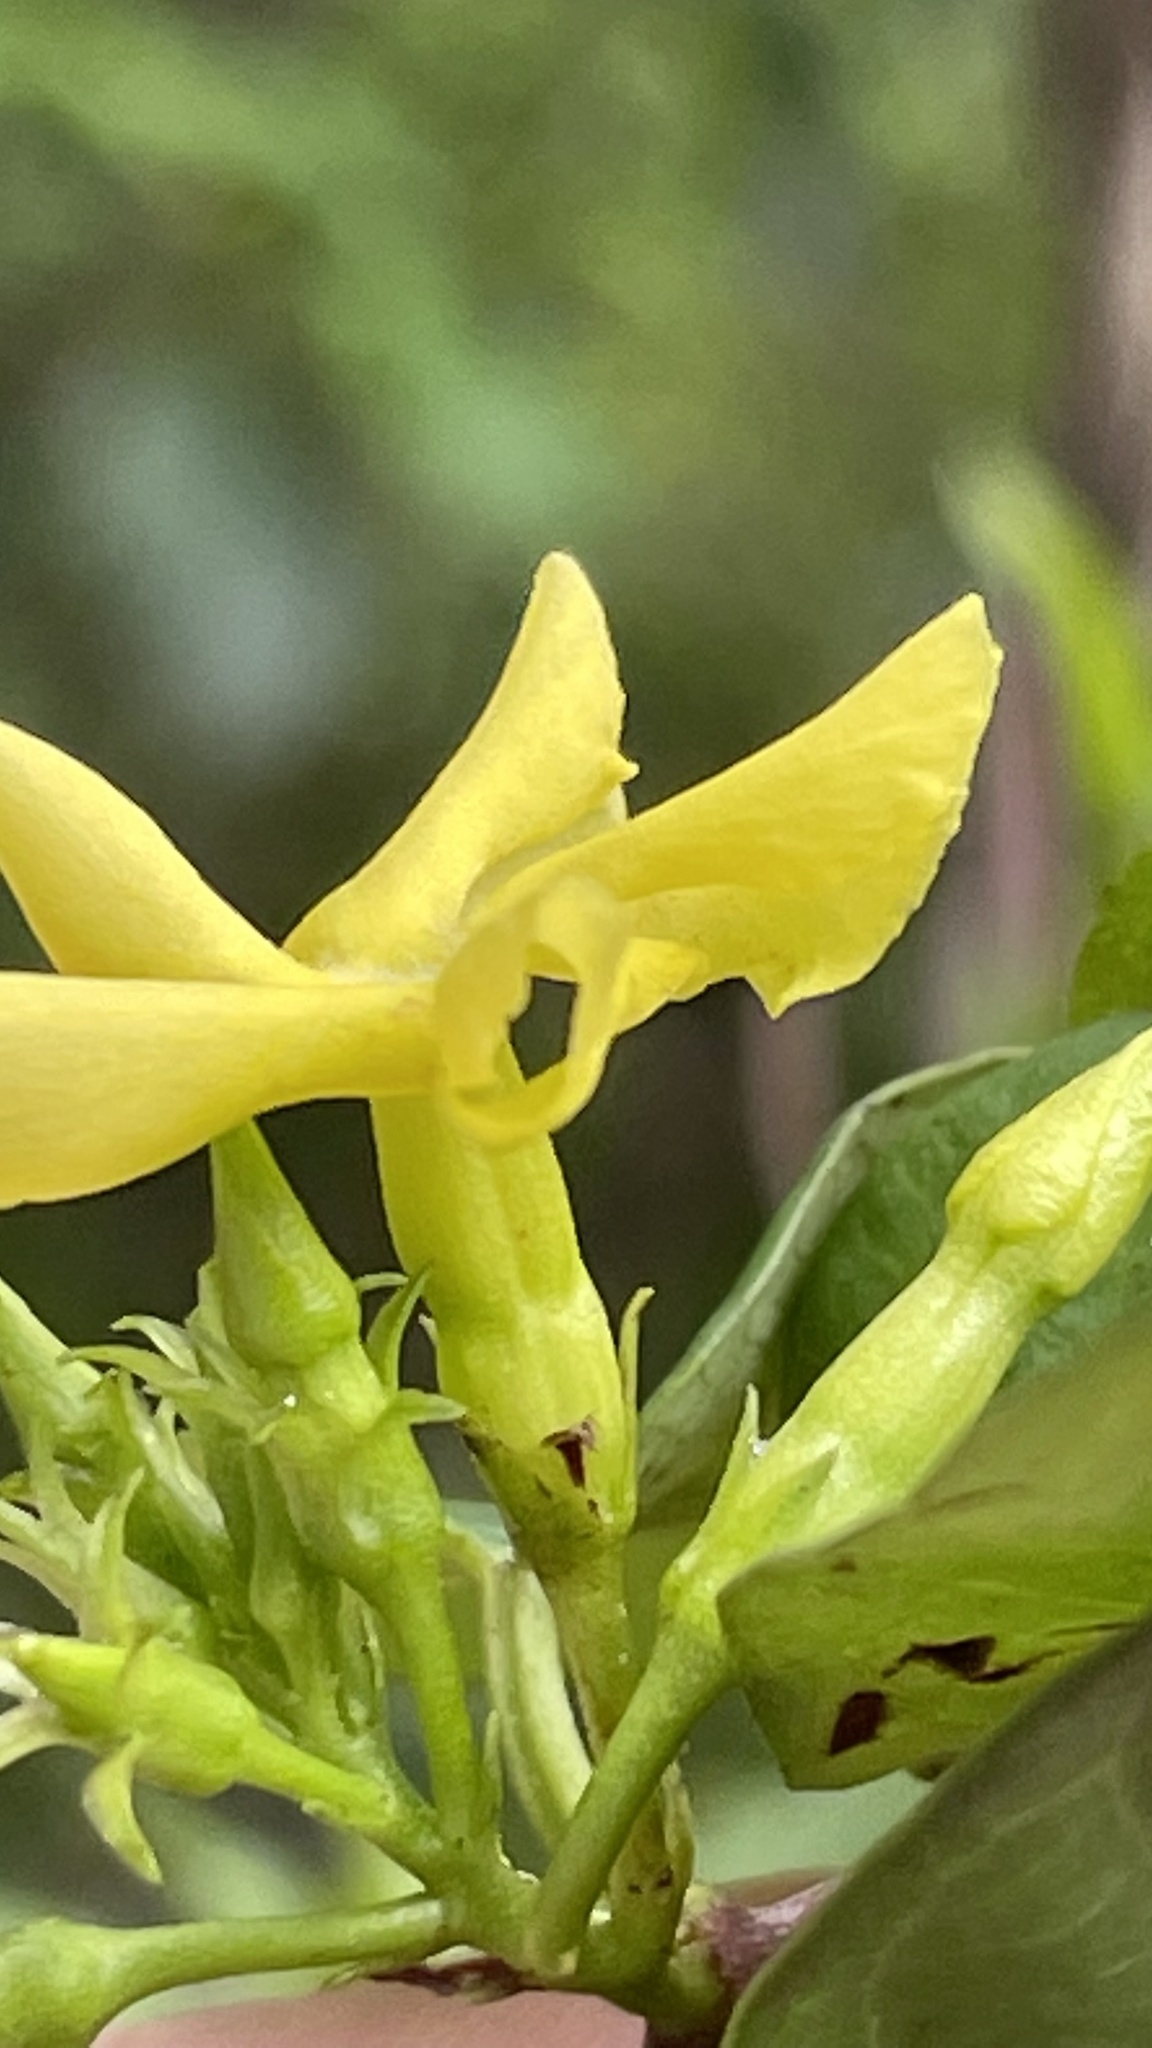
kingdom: Plantae
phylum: Tracheophyta
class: Magnoliopsida
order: Gentianales
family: Apocynaceae
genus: Mandevilla
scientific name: Mandevilla torosa
